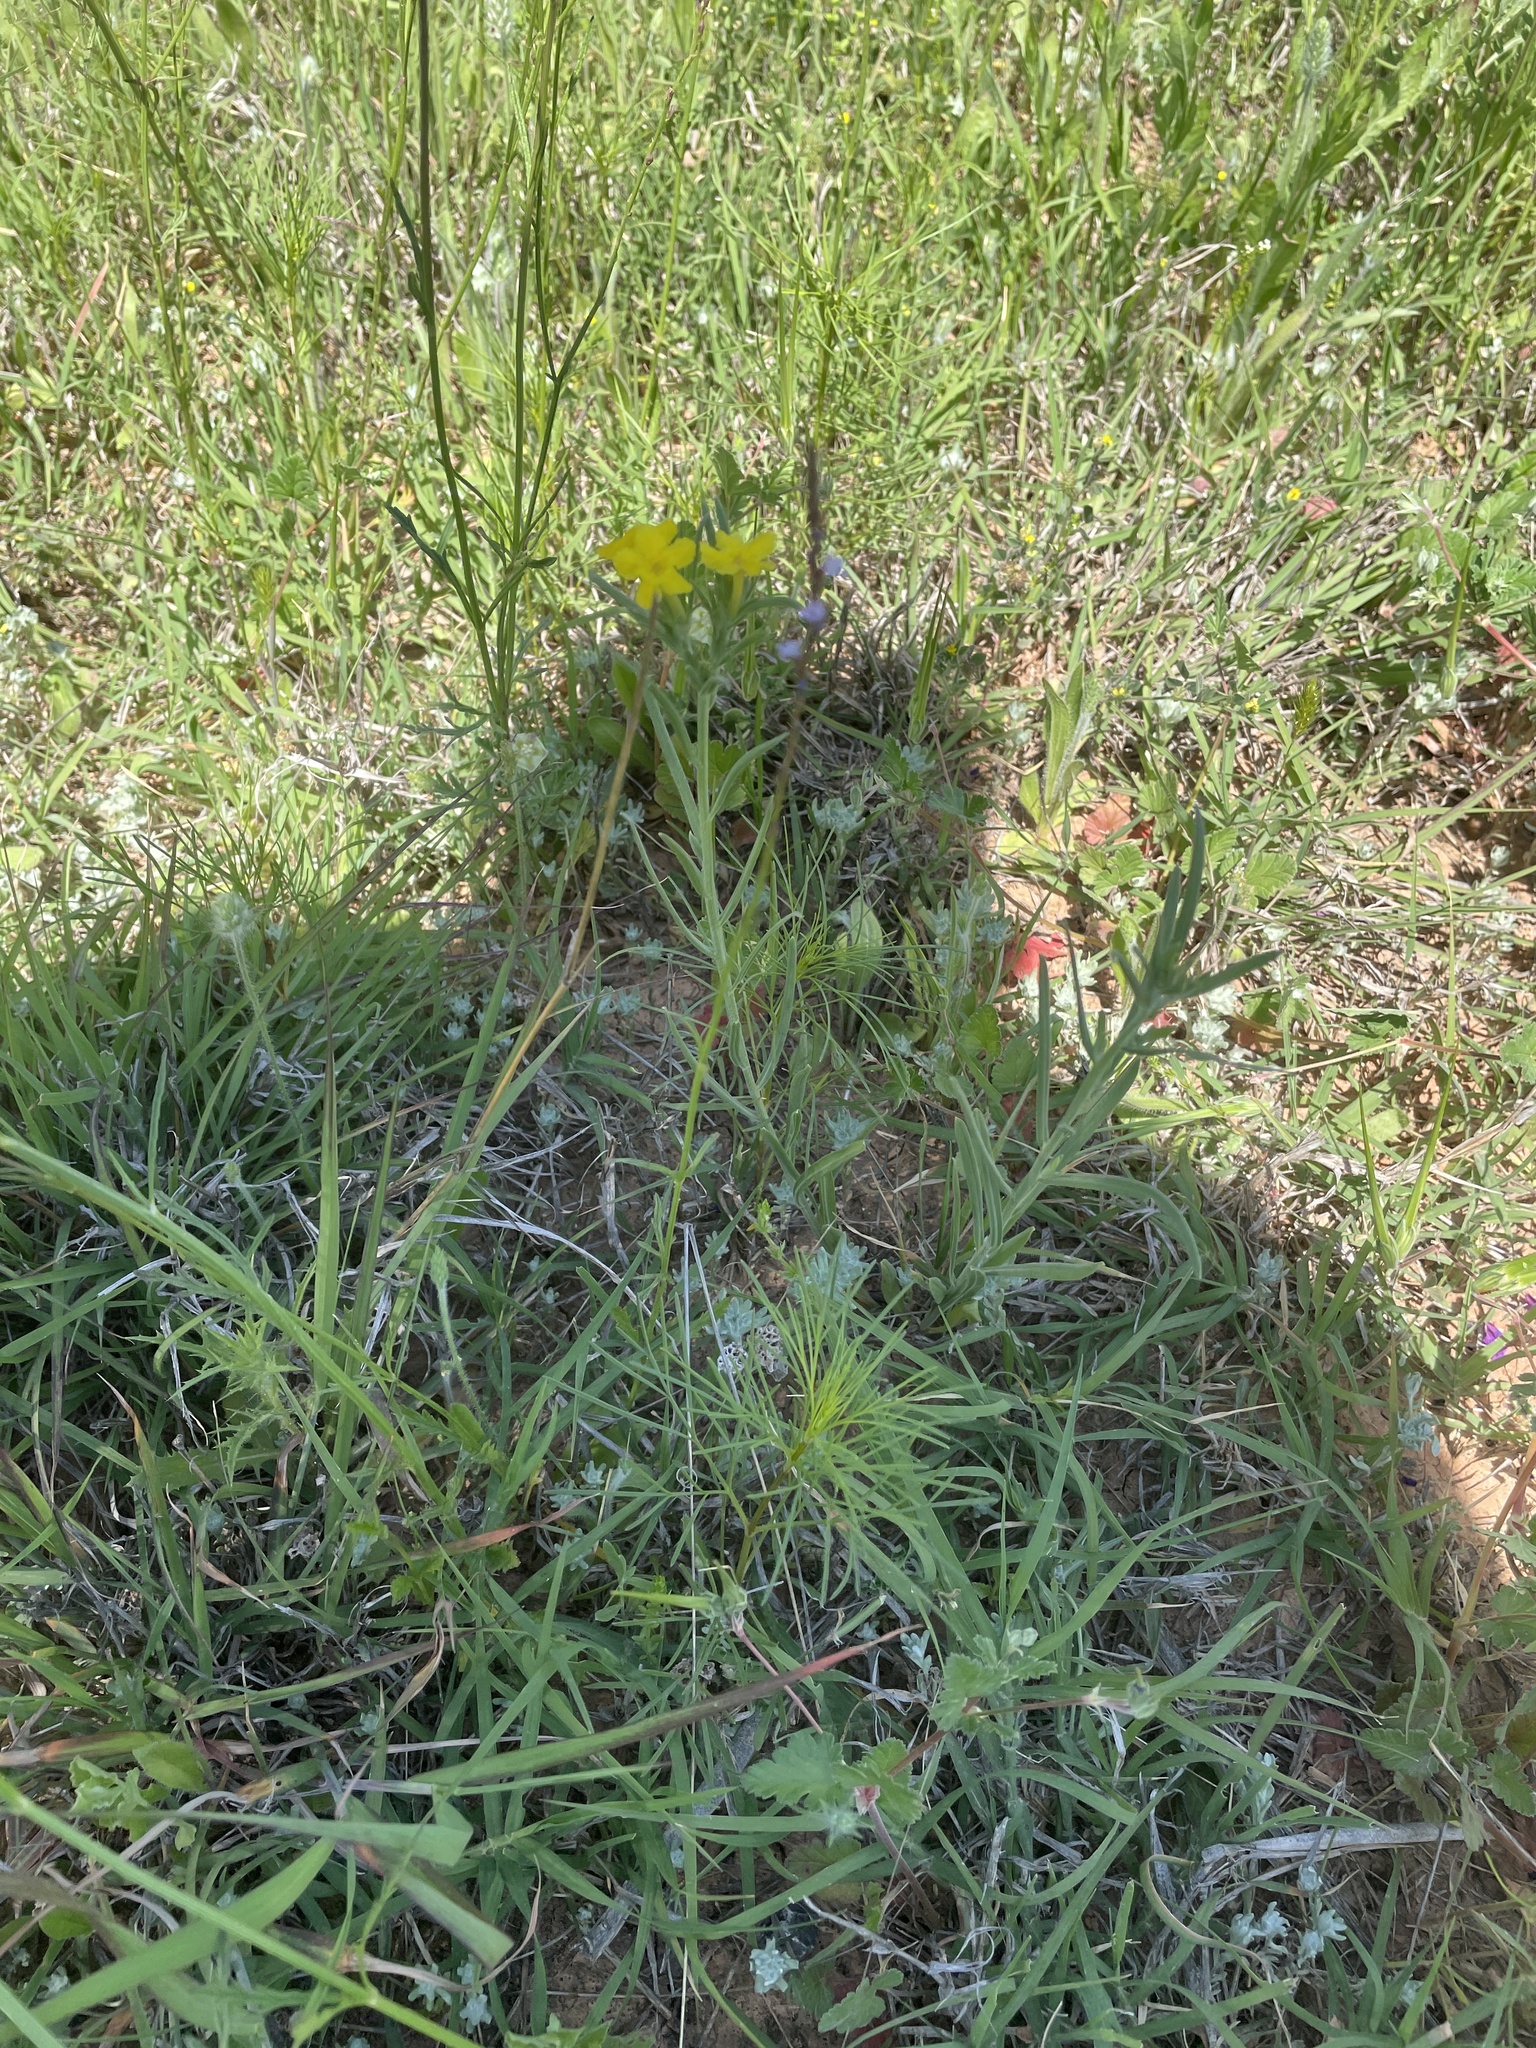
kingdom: Plantae
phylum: Tracheophyta
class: Magnoliopsida
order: Boraginales
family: Boraginaceae
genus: Lithospermum
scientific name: Lithospermum incisum
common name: Fringed gromwell
